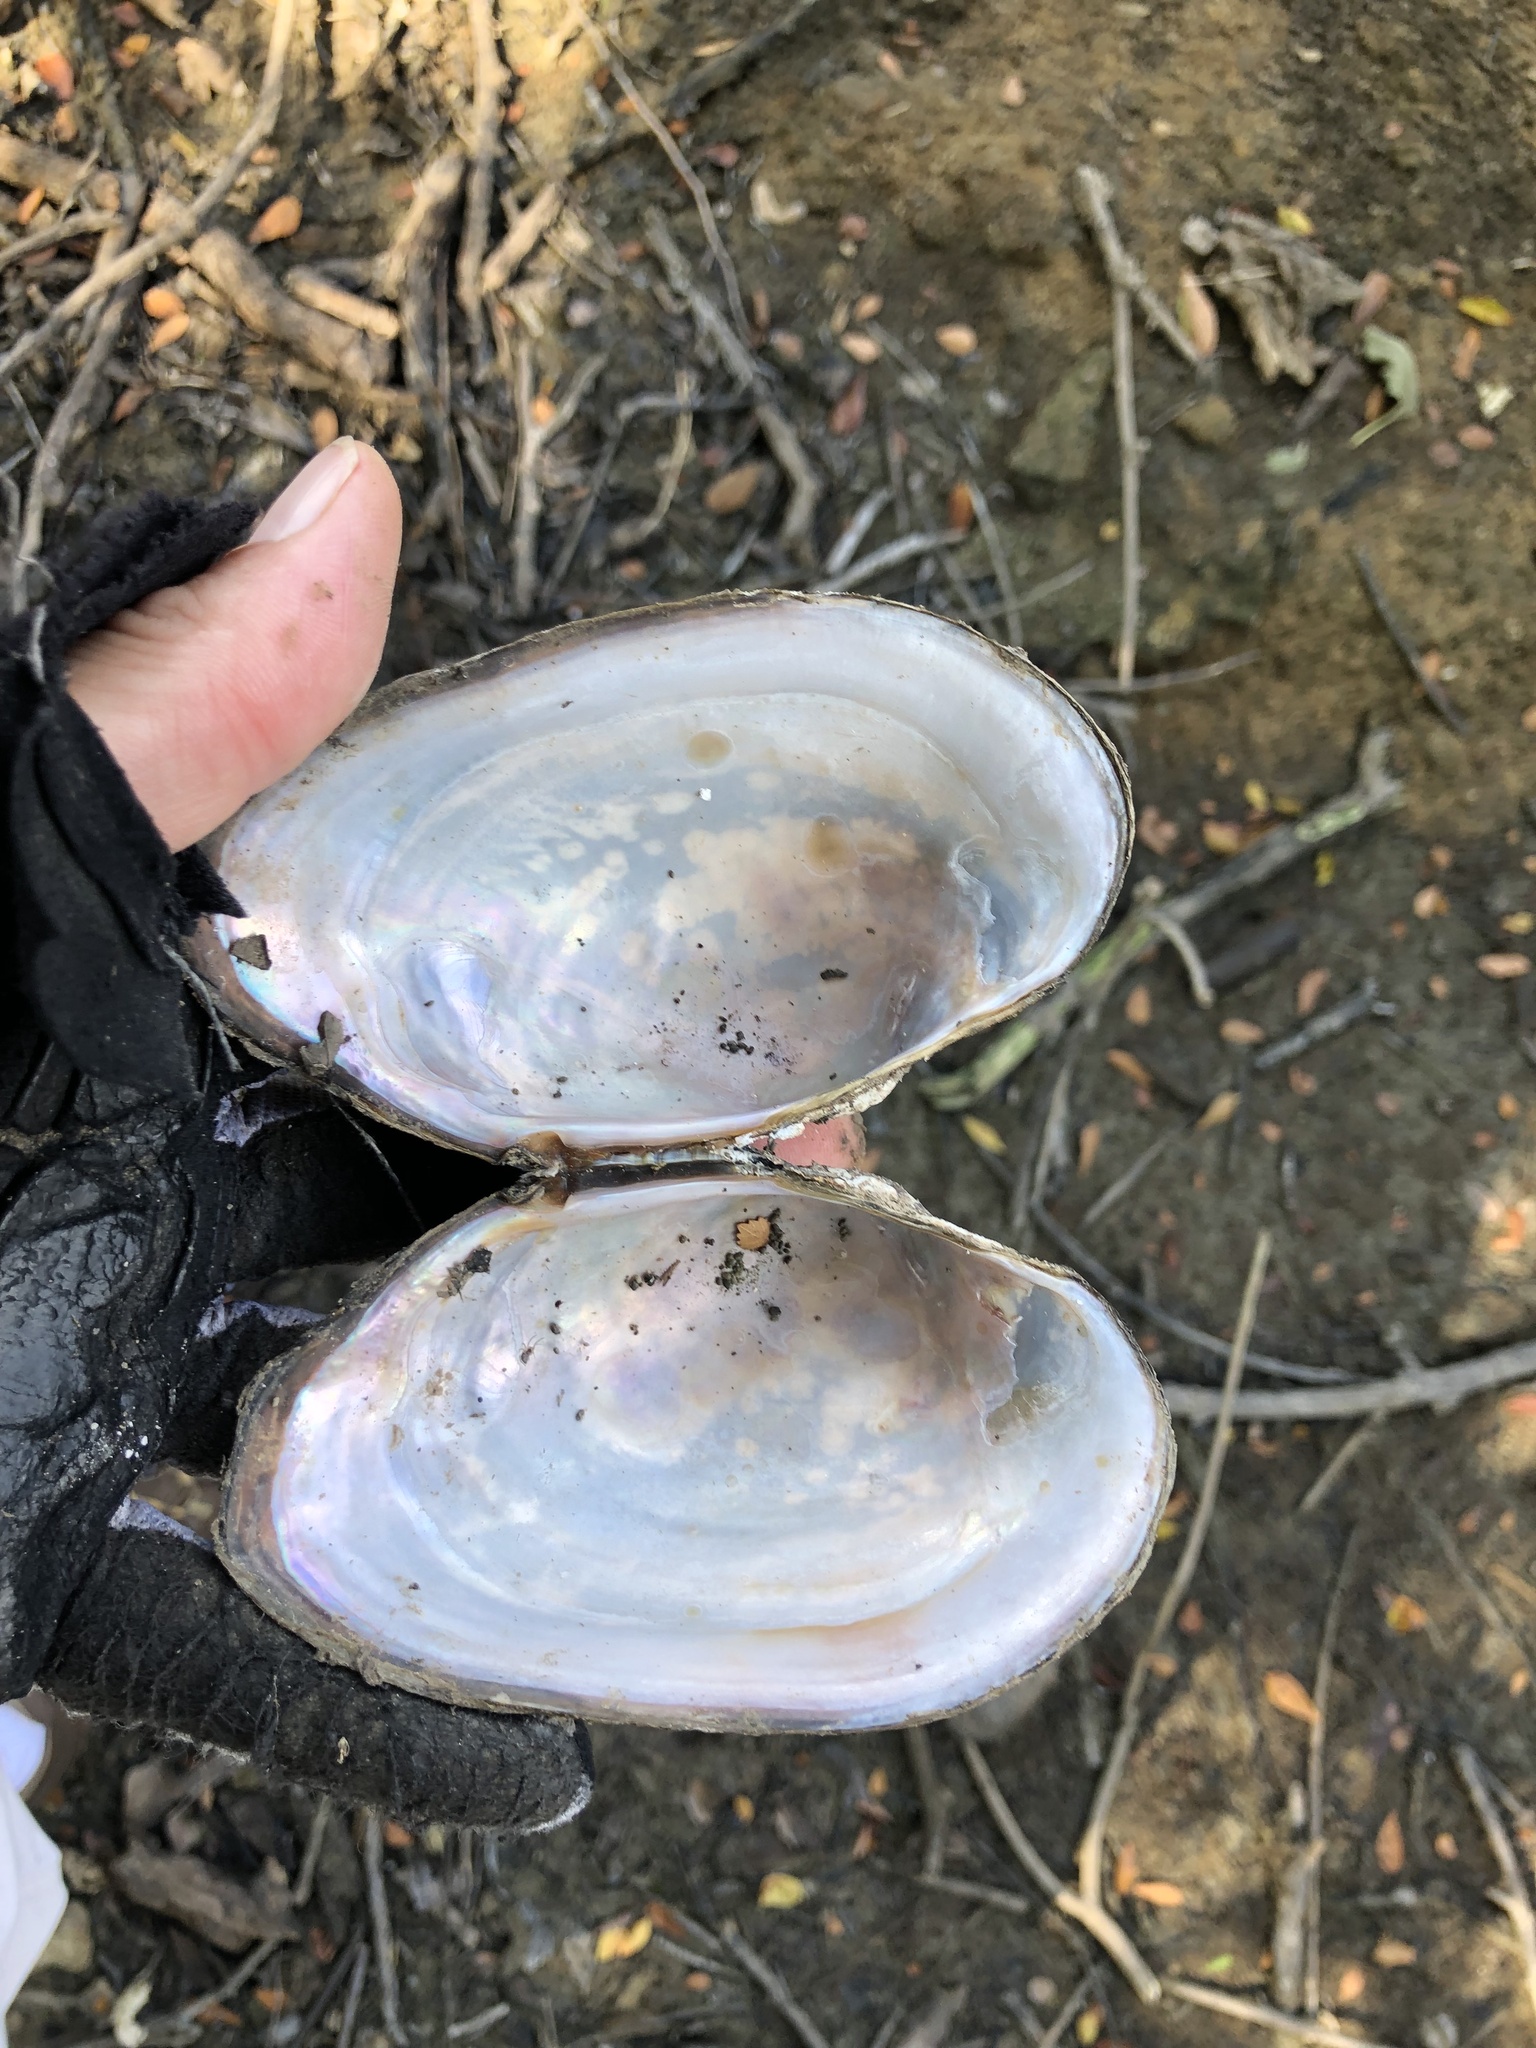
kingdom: Animalia
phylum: Mollusca
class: Bivalvia
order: Unionida
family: Unionidae
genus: Pyganodon
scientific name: Pyganodon grandis
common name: Giant floater
